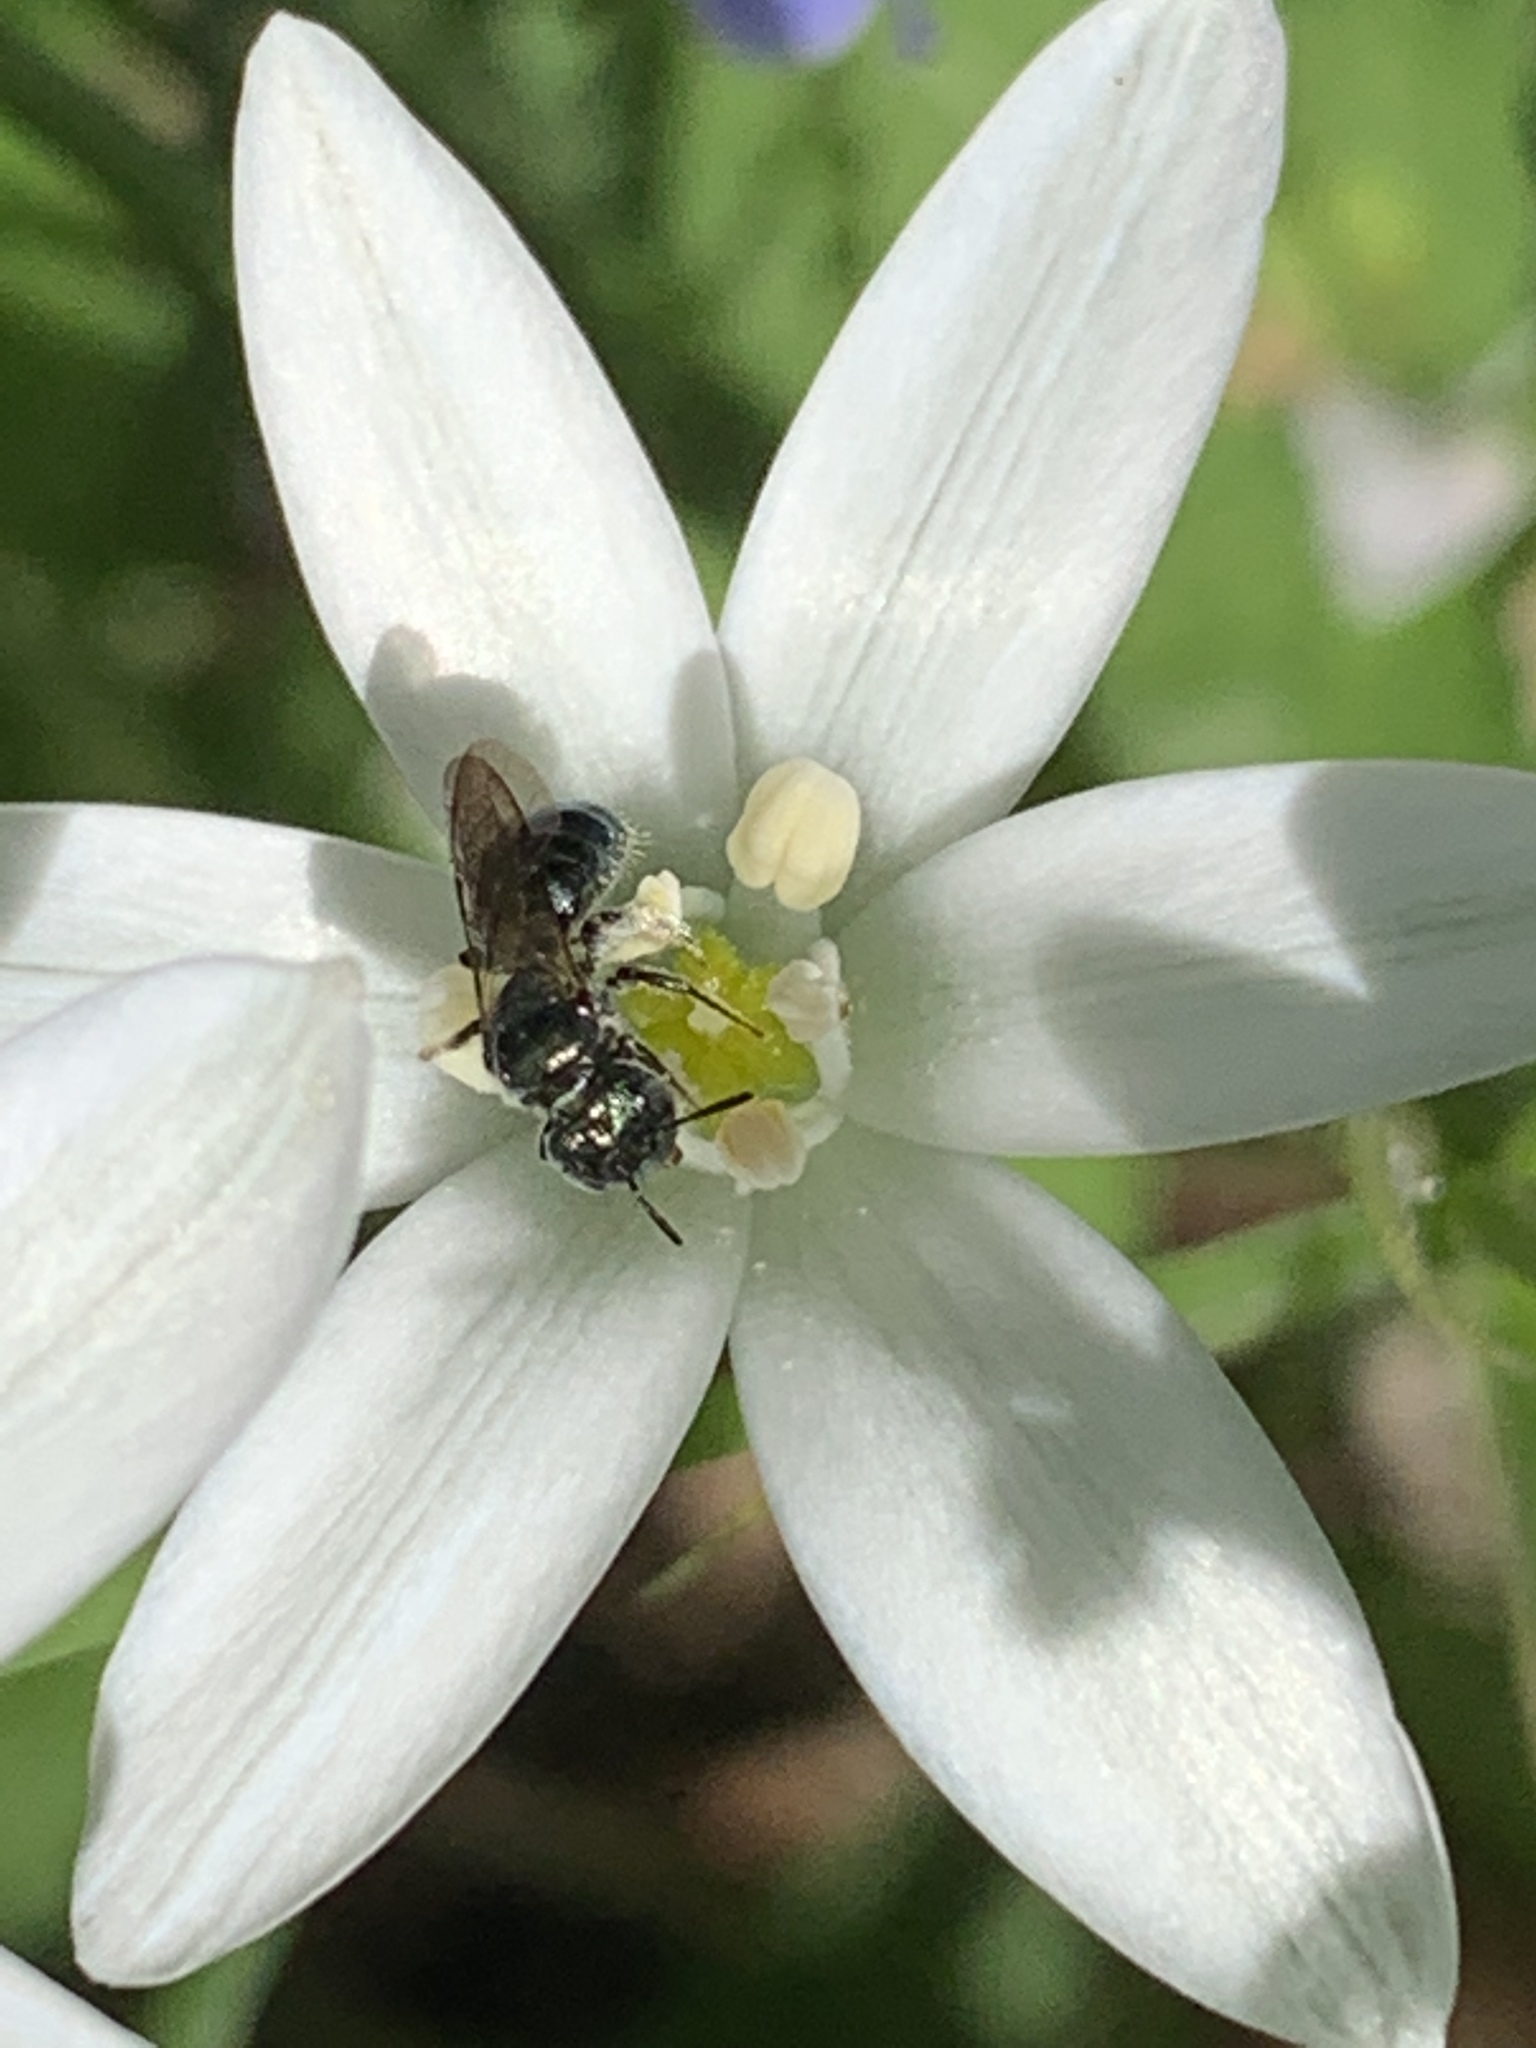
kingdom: Animalia
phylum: Arthropoda
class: Insecta
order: Hymenoptera
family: Apidae
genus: Zadontomerus
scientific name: Zadontomerus
